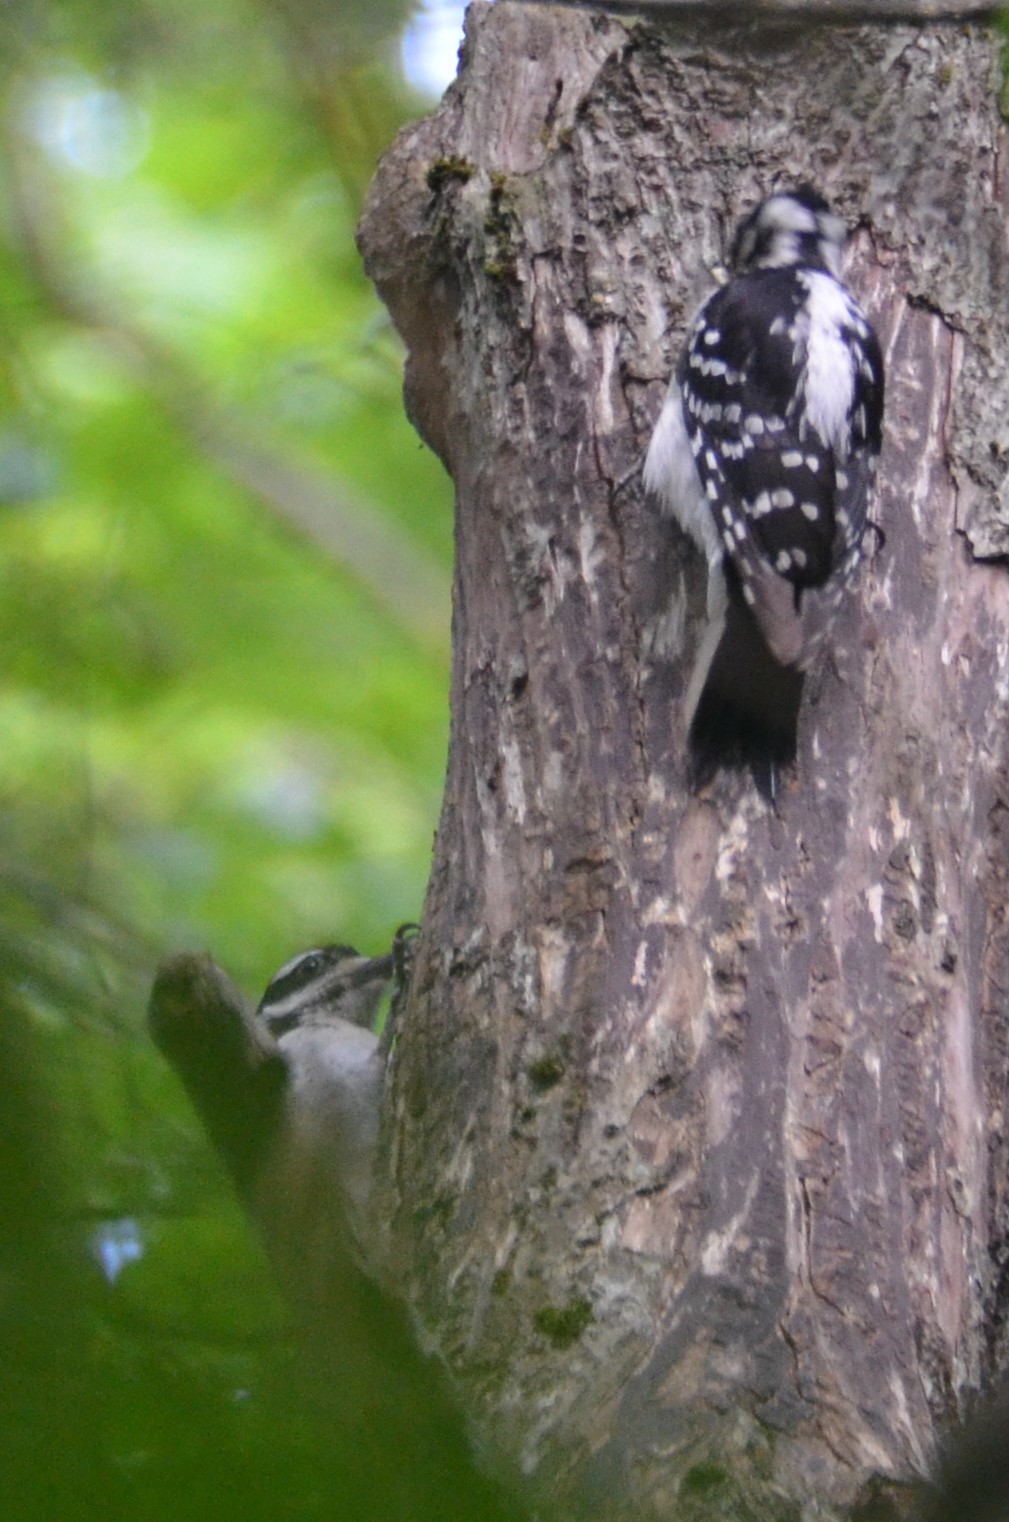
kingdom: Animalia
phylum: Chordata
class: Aves
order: Piciformes
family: Picidae
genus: Leuconotopicus
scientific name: Leuconotopicus villosus
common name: Hairy woodpecker
